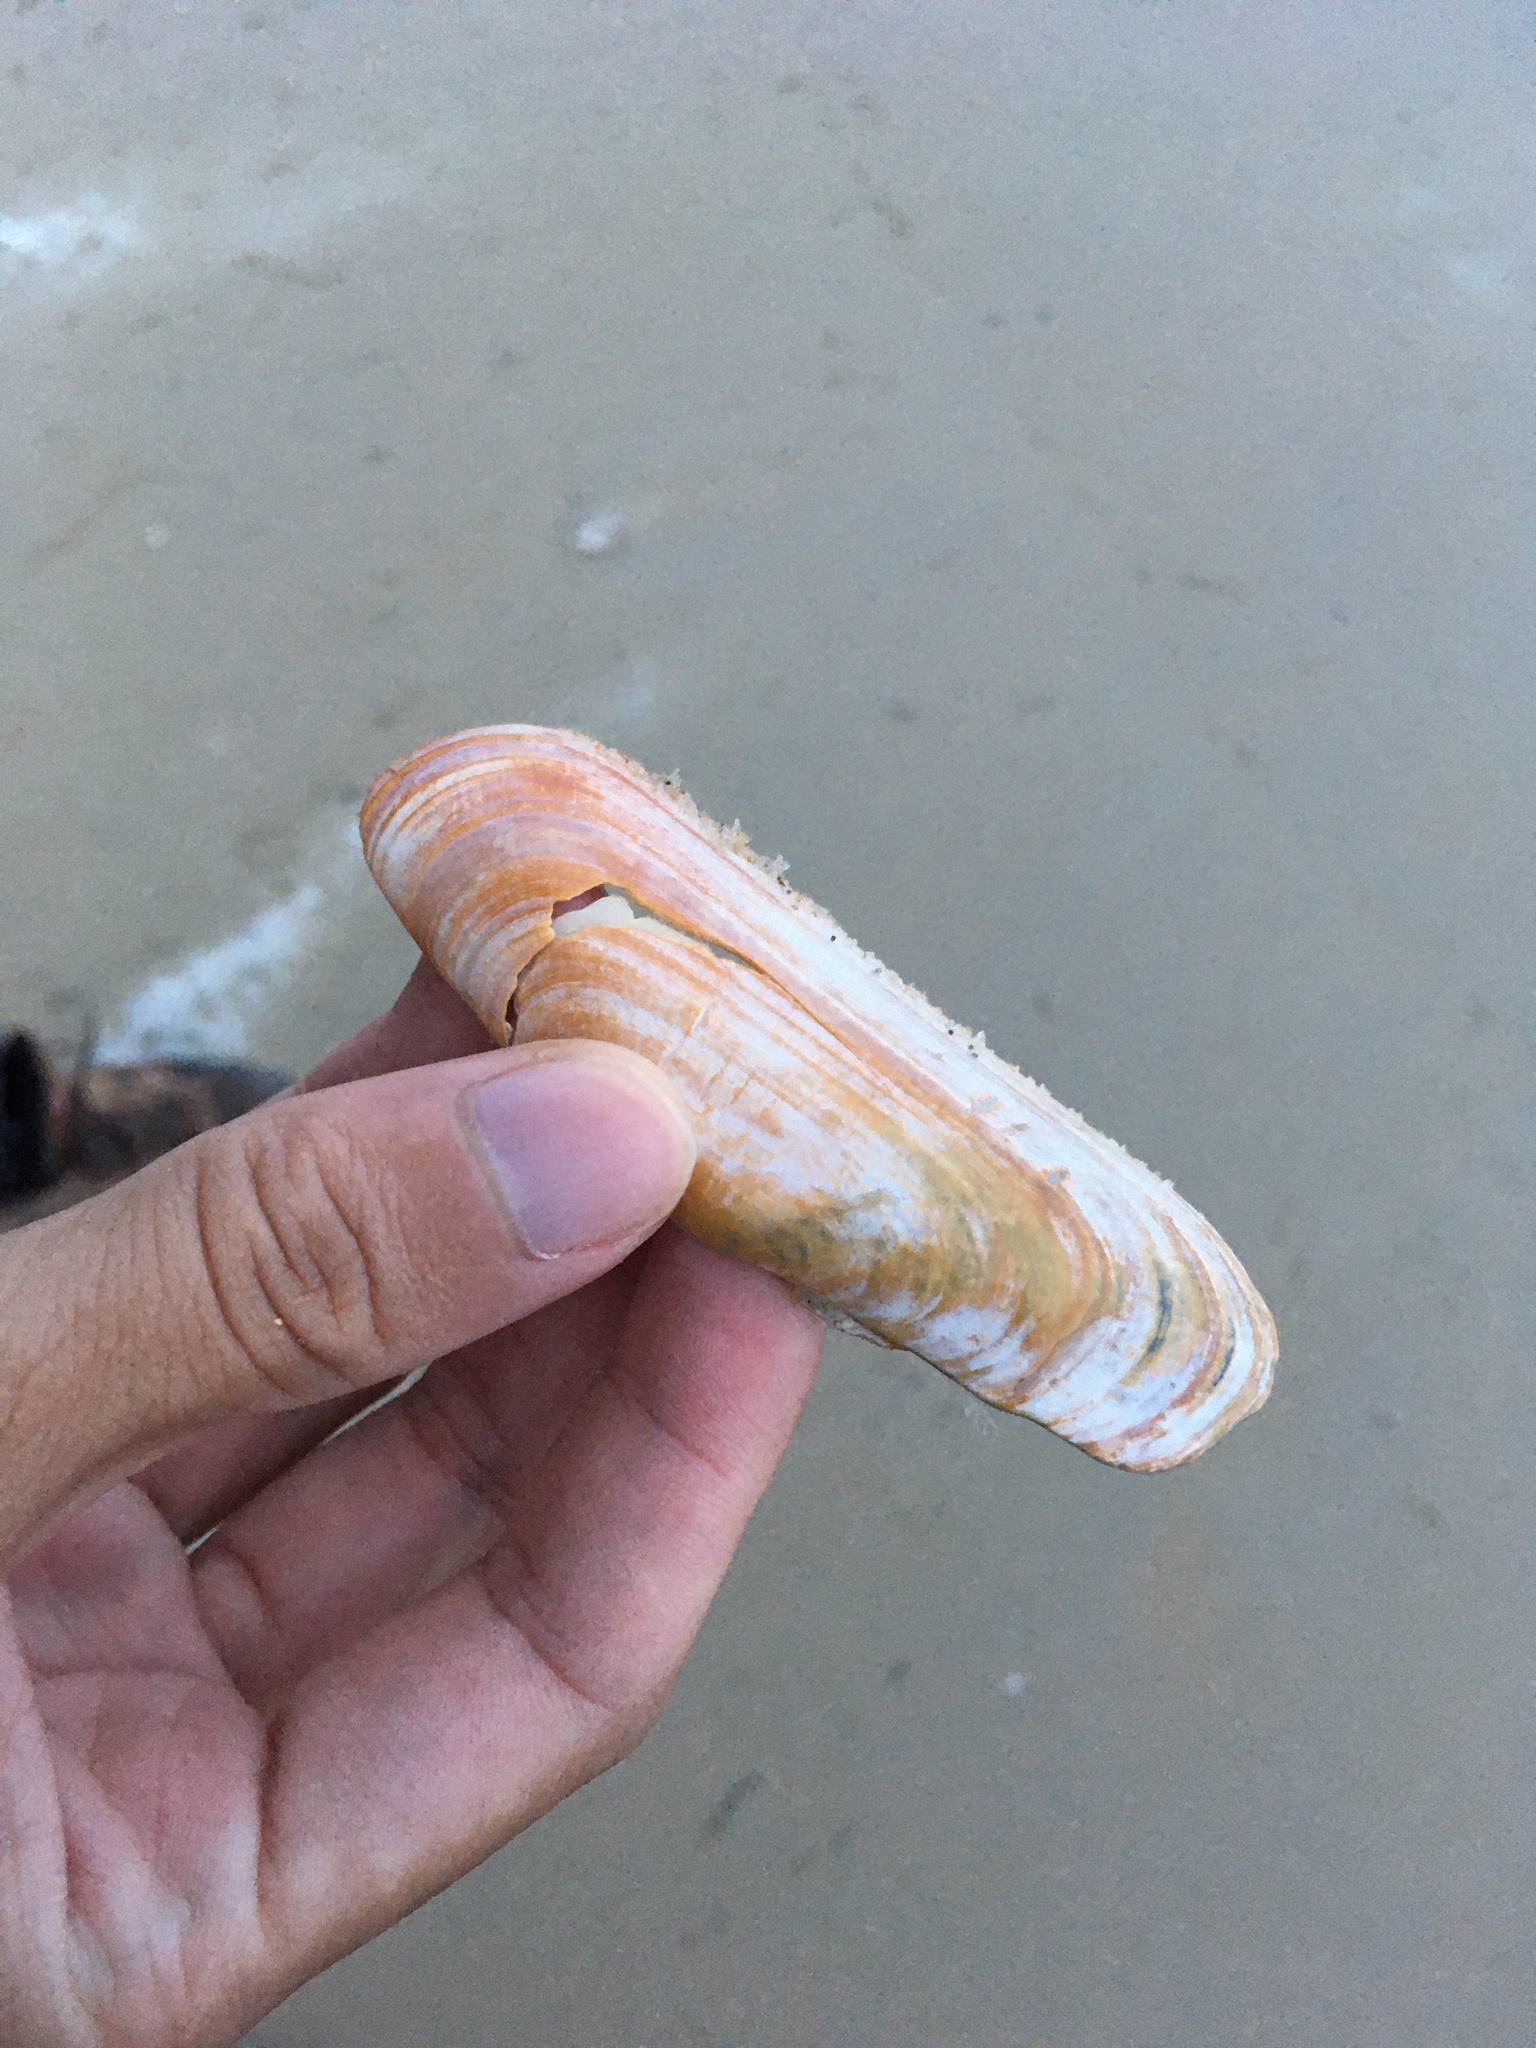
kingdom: Animalia
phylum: Mollusca
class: Bivalvia
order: Cardiida
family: Solecurtidae
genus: Tagelus
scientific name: Tagelus plebeius
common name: Stout tagelus
